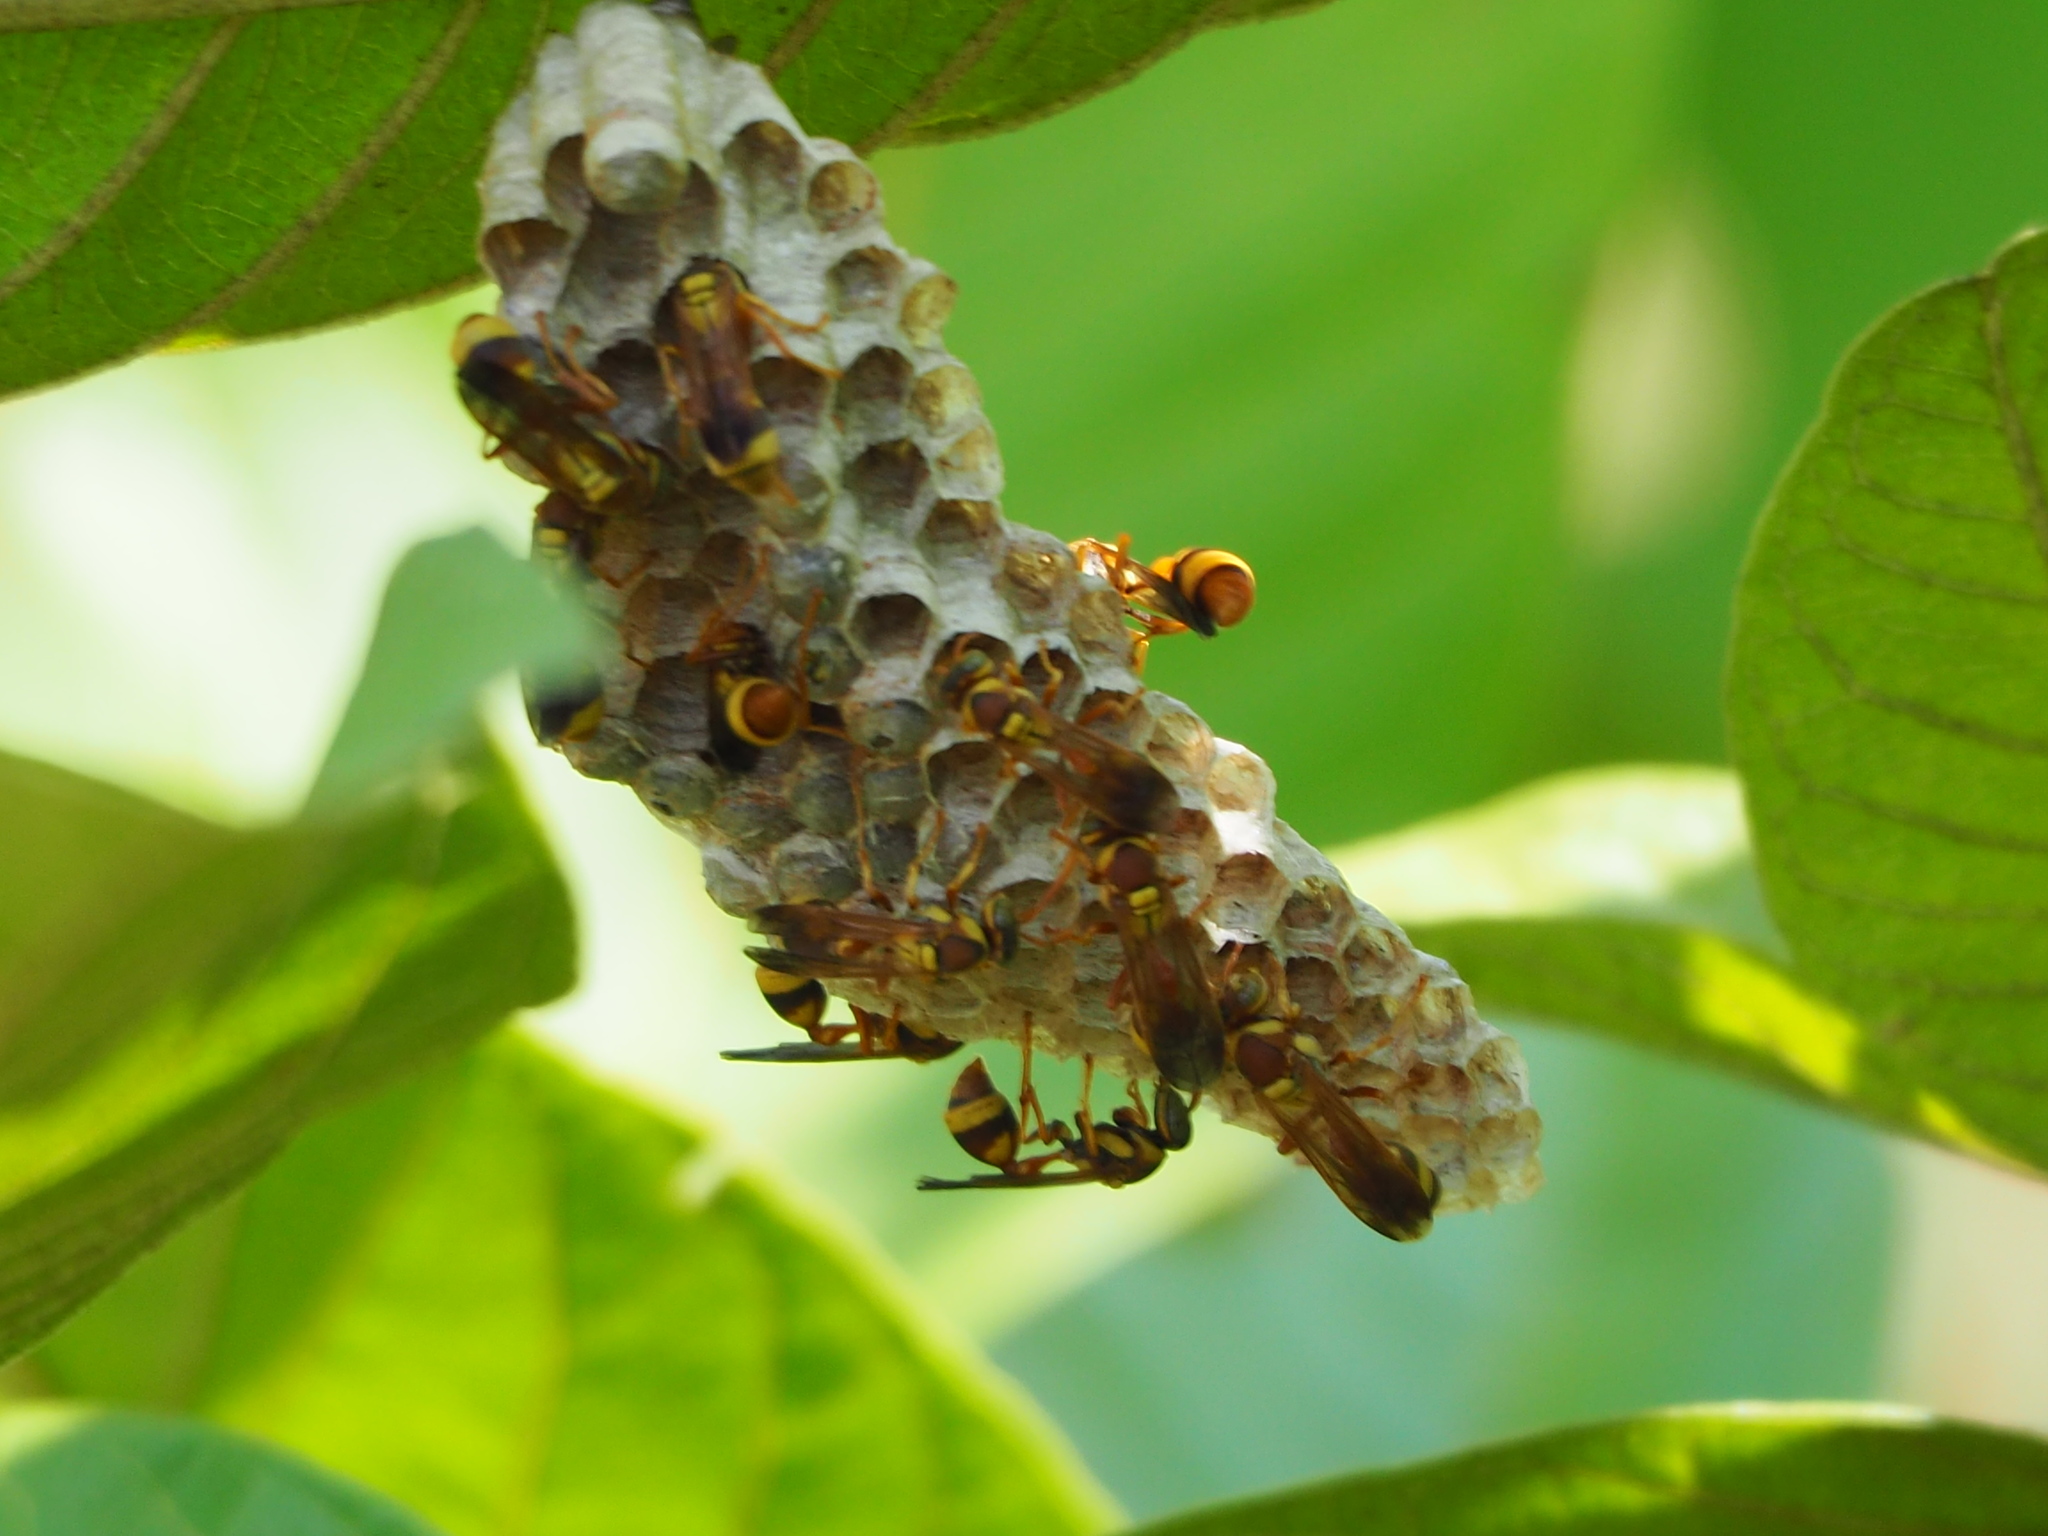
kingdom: Animalia
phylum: Arthropoda
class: Insecta
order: Hymenoptera
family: Vespidae
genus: Parapolybia
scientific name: Parapolybia varia
